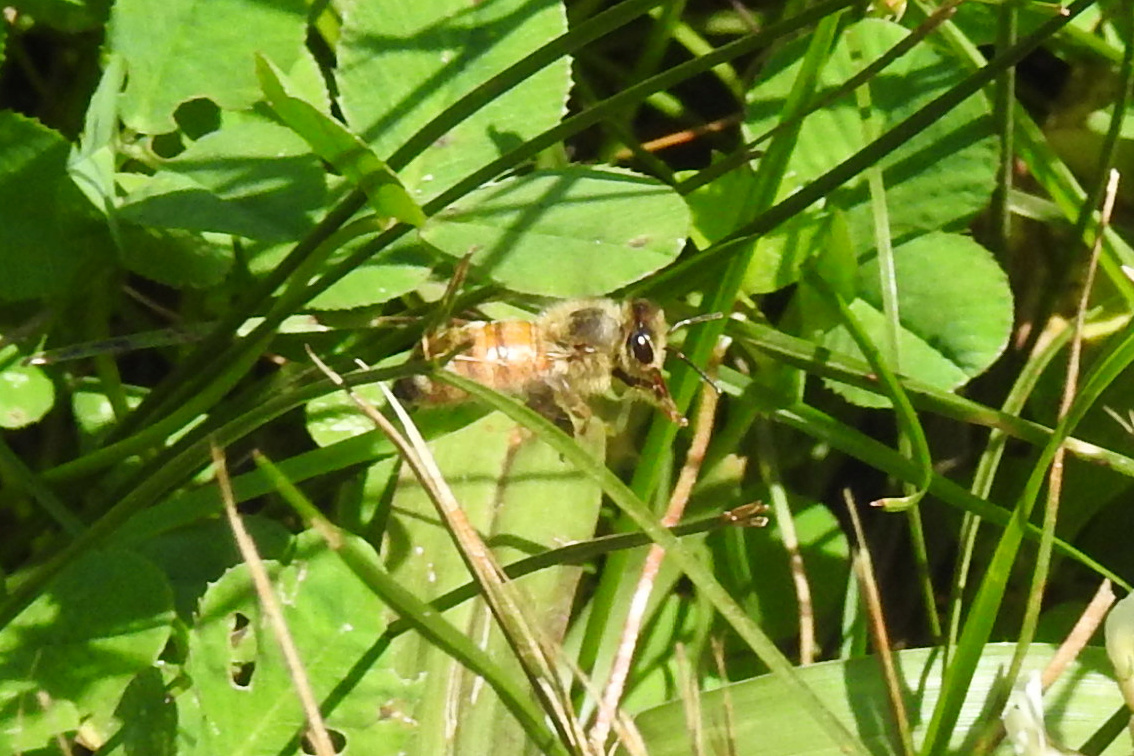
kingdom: Animalia
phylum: Arthropoda
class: Insecta
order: Hymenoptera
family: Apidae
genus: Apis
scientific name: Apis mellifera
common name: Honey bee
